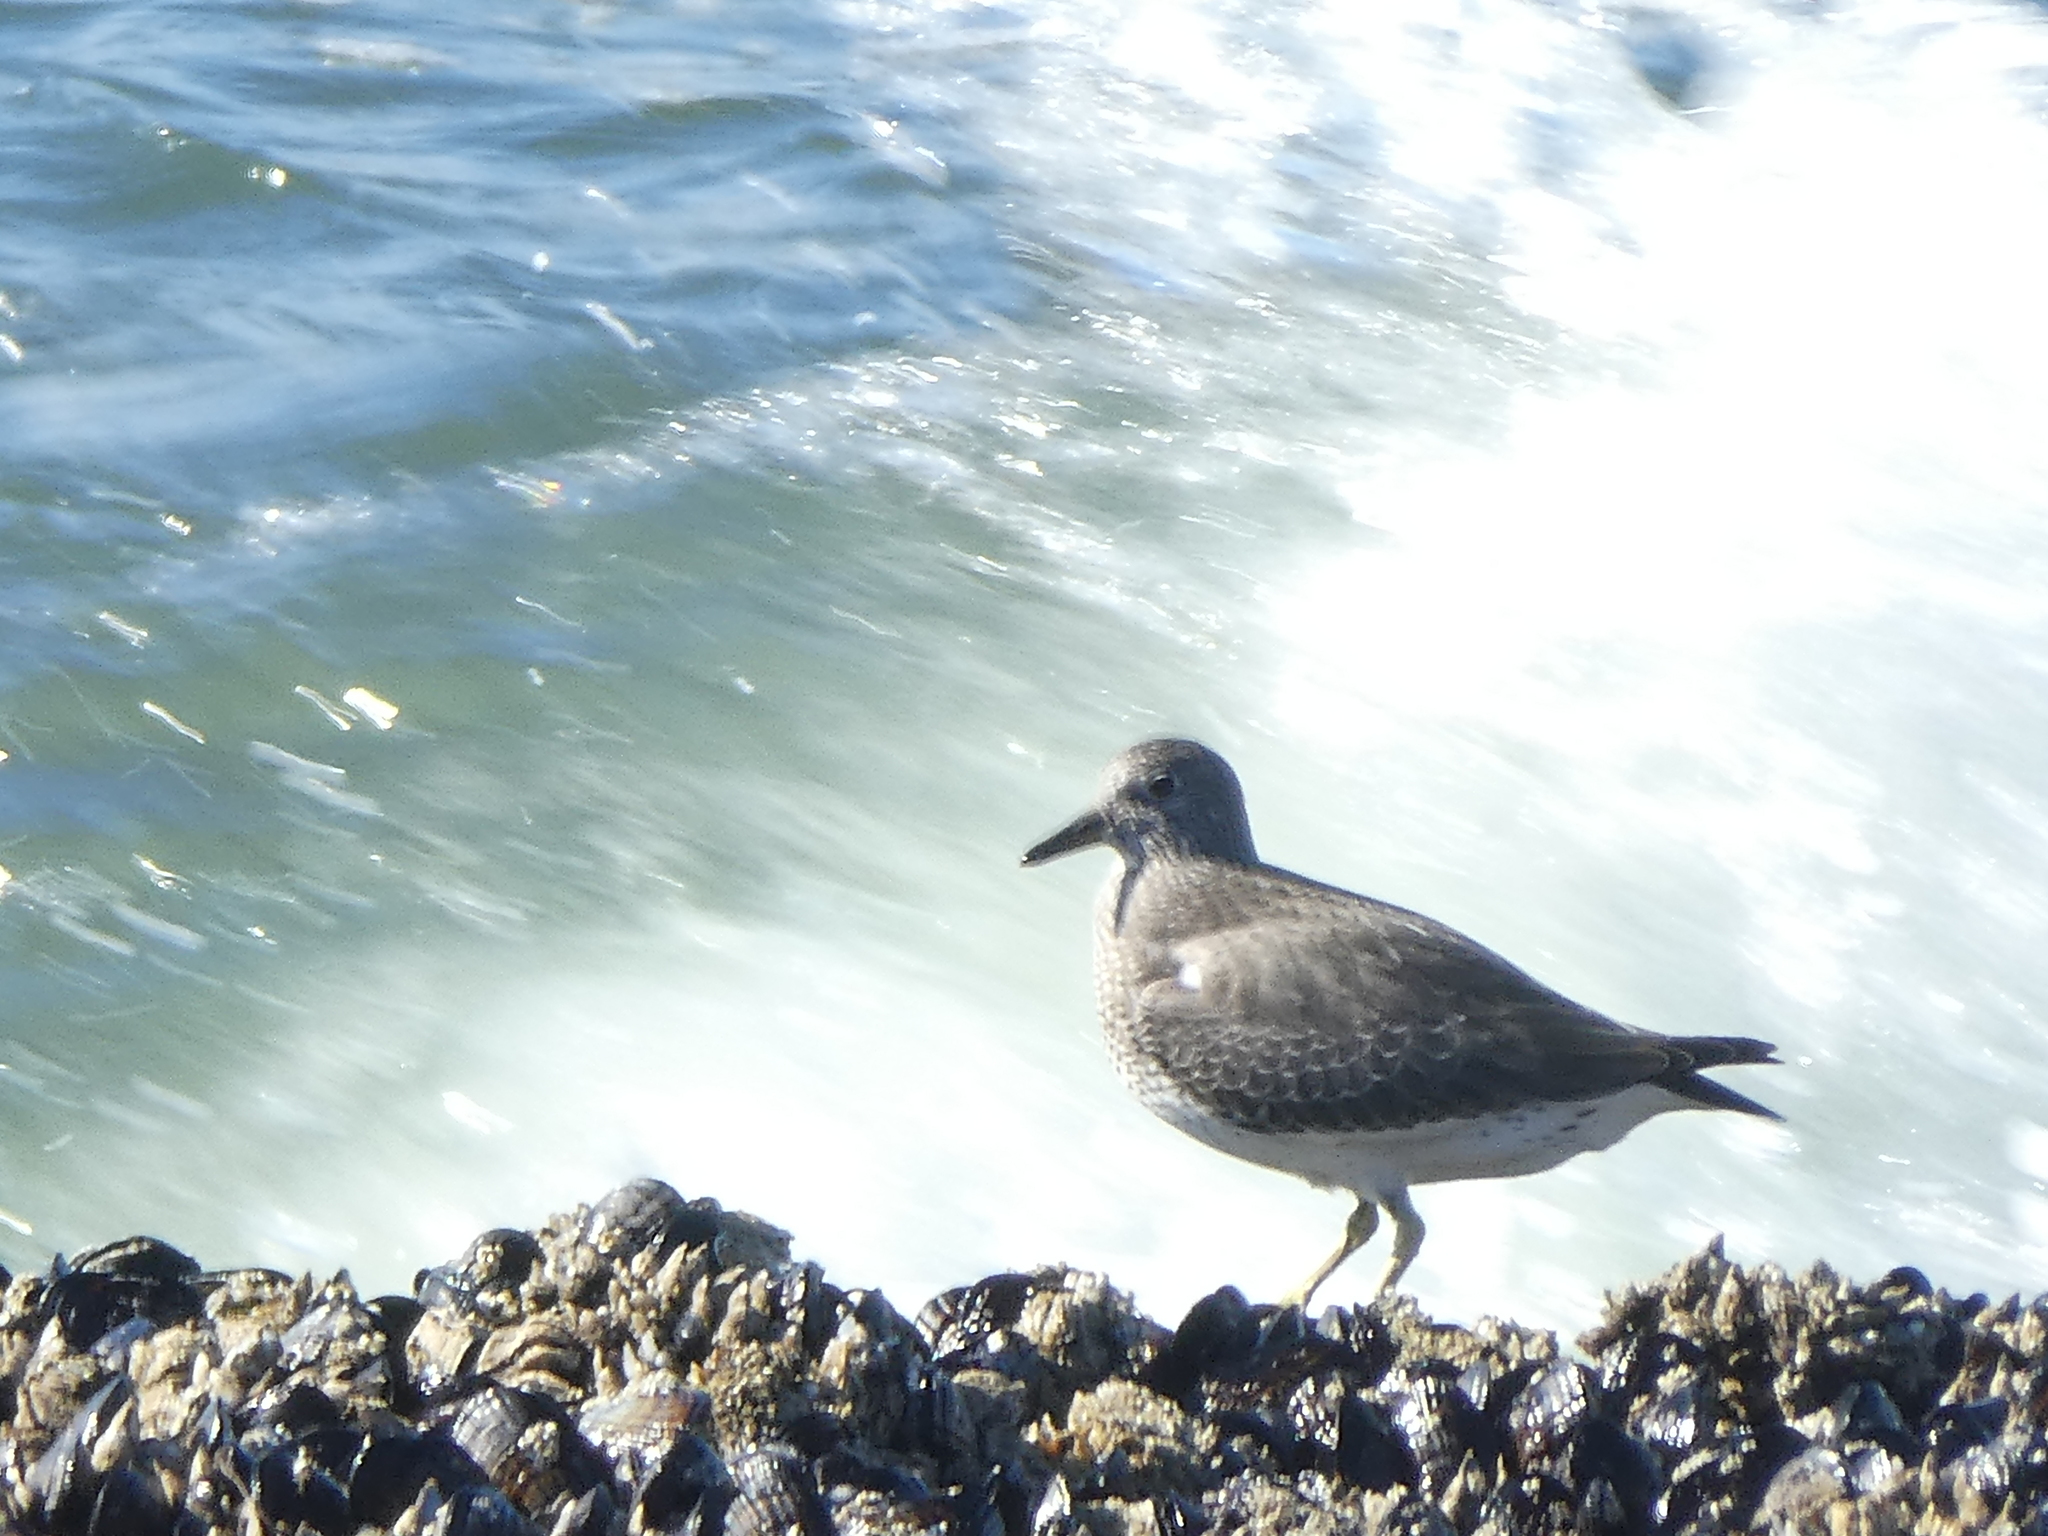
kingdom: Animalia
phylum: Chordata
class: Aves
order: Charadriiformes
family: Scolopacidae
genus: Calidris
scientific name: Calidris virgata
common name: Surfbird
